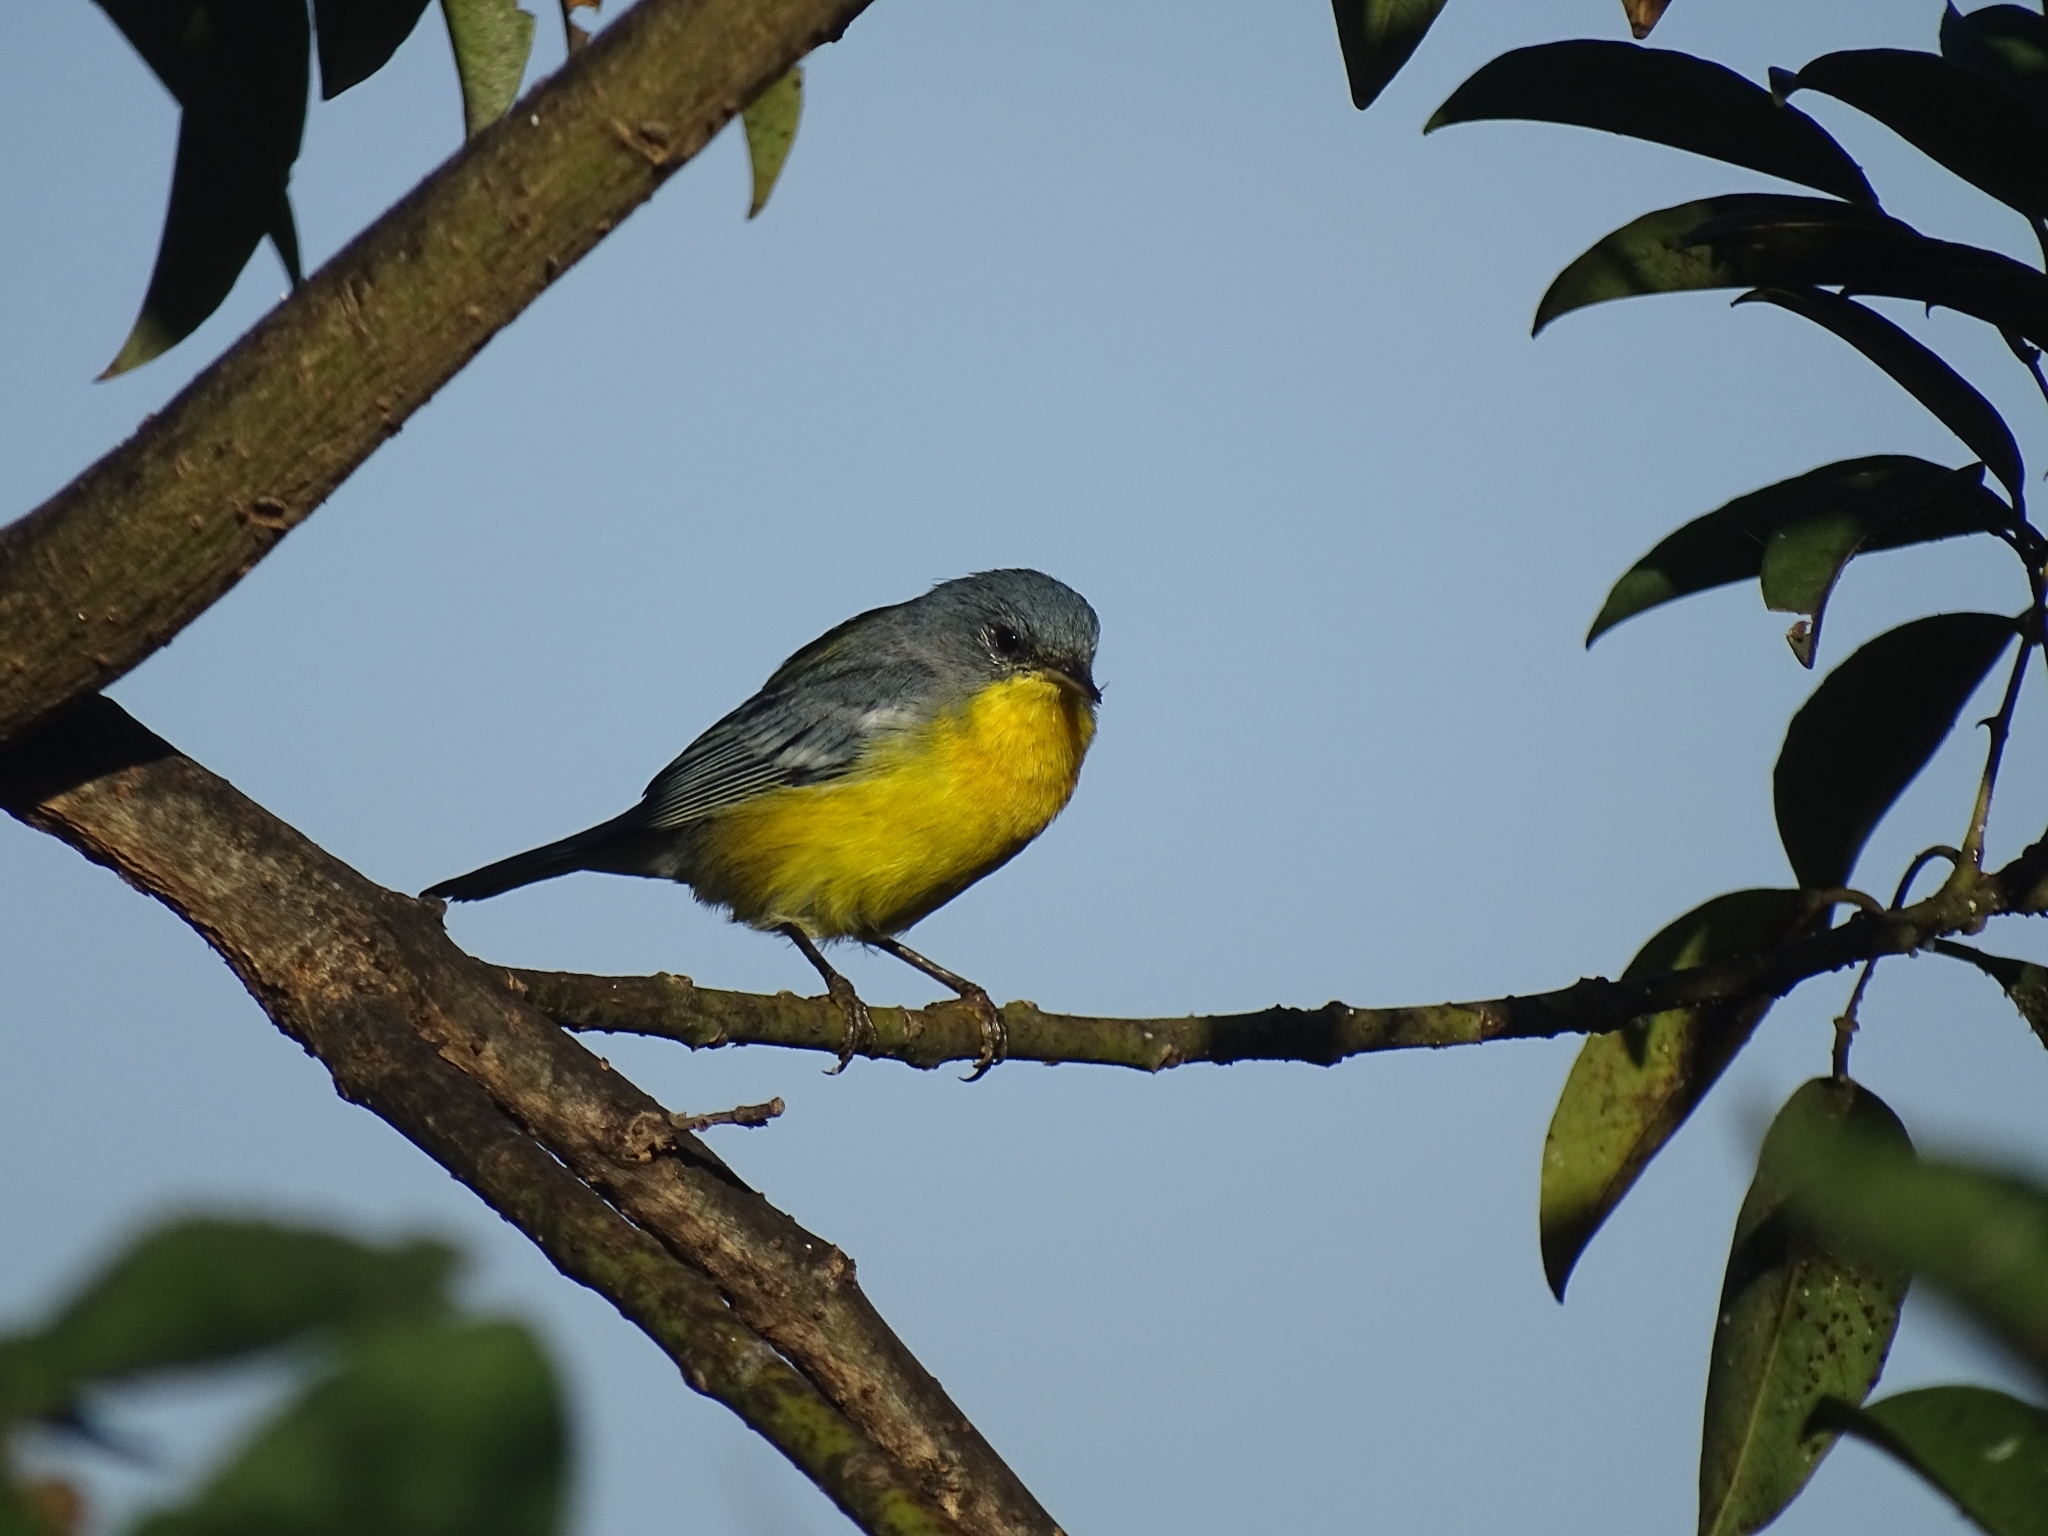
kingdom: Animalia
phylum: Chordata
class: Aves
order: Passeriformes
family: Parulidae
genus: Setophaga
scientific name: Setophaga pitiayumi
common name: Tropical parula
